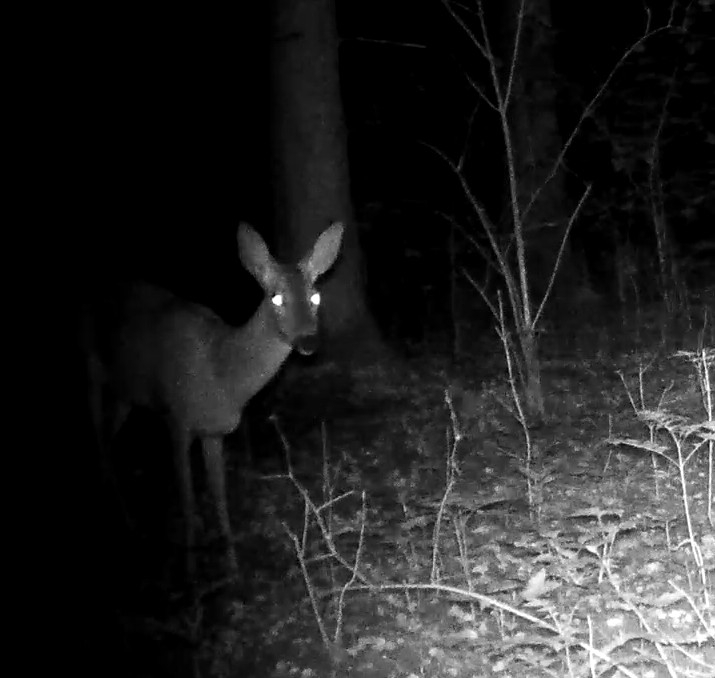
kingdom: Animalia
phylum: Chordata
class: Mammalia
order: Artiodactyla
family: Cervidae
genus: Capreolus
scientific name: Capreolus capreolus
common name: Western roe deer
